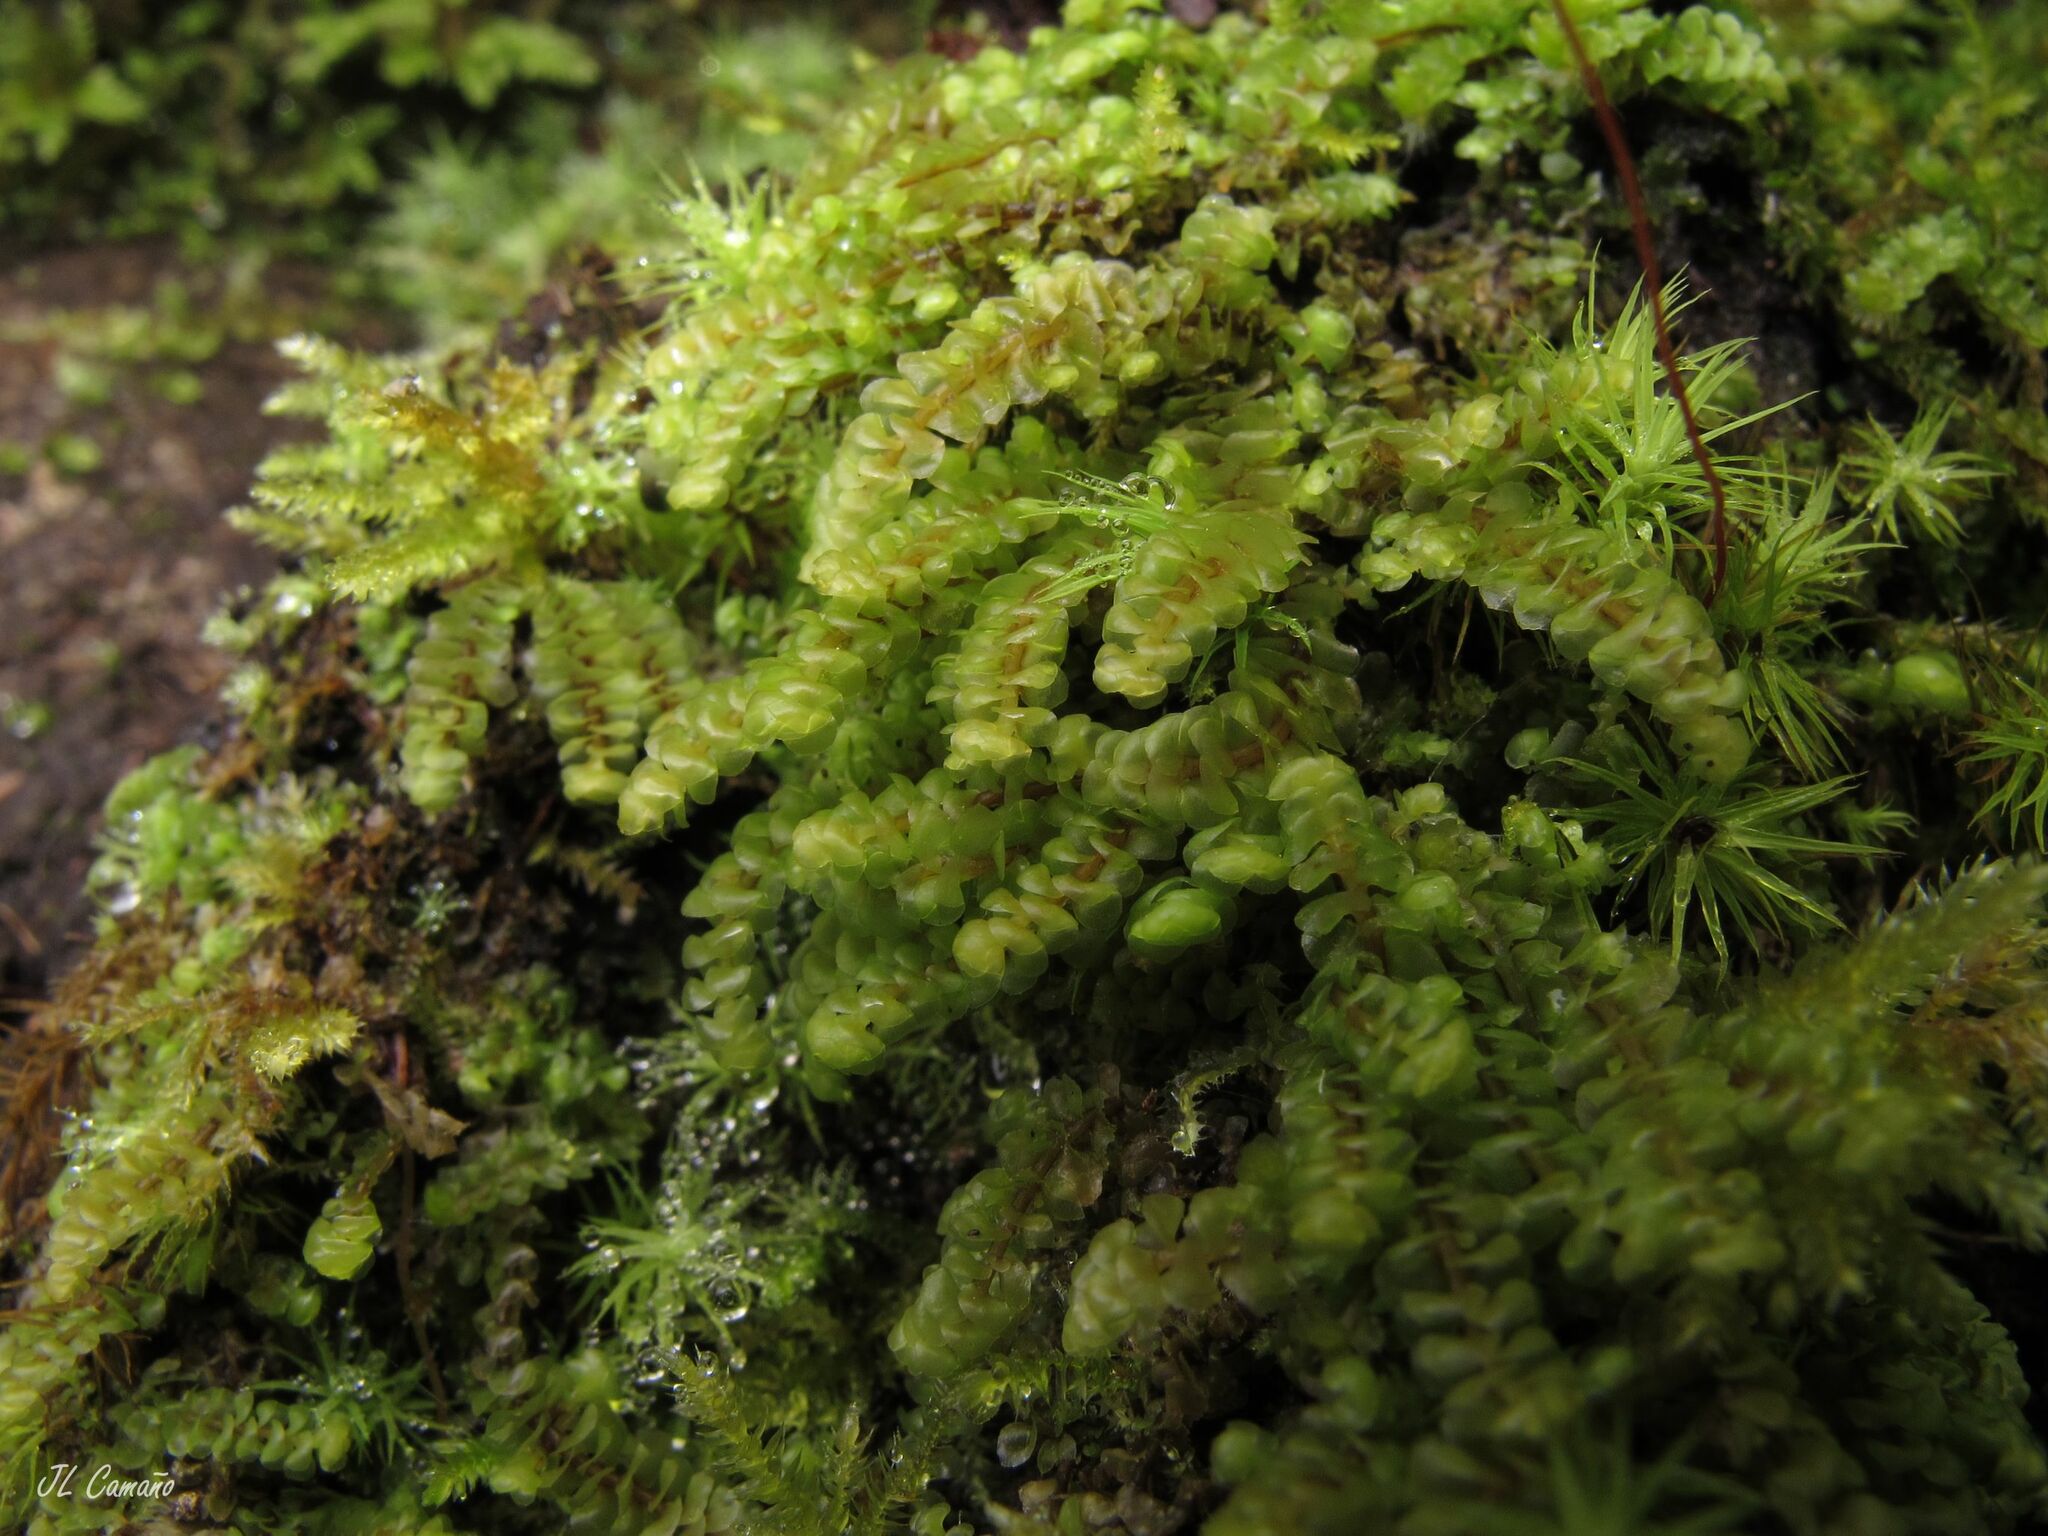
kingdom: Plantae
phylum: Marchantiophyta
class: Jungermanniopsida
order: Jungermanniales
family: Scapaniaceae
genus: Scapania
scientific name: Scapania compacta
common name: Thick-set earwort
